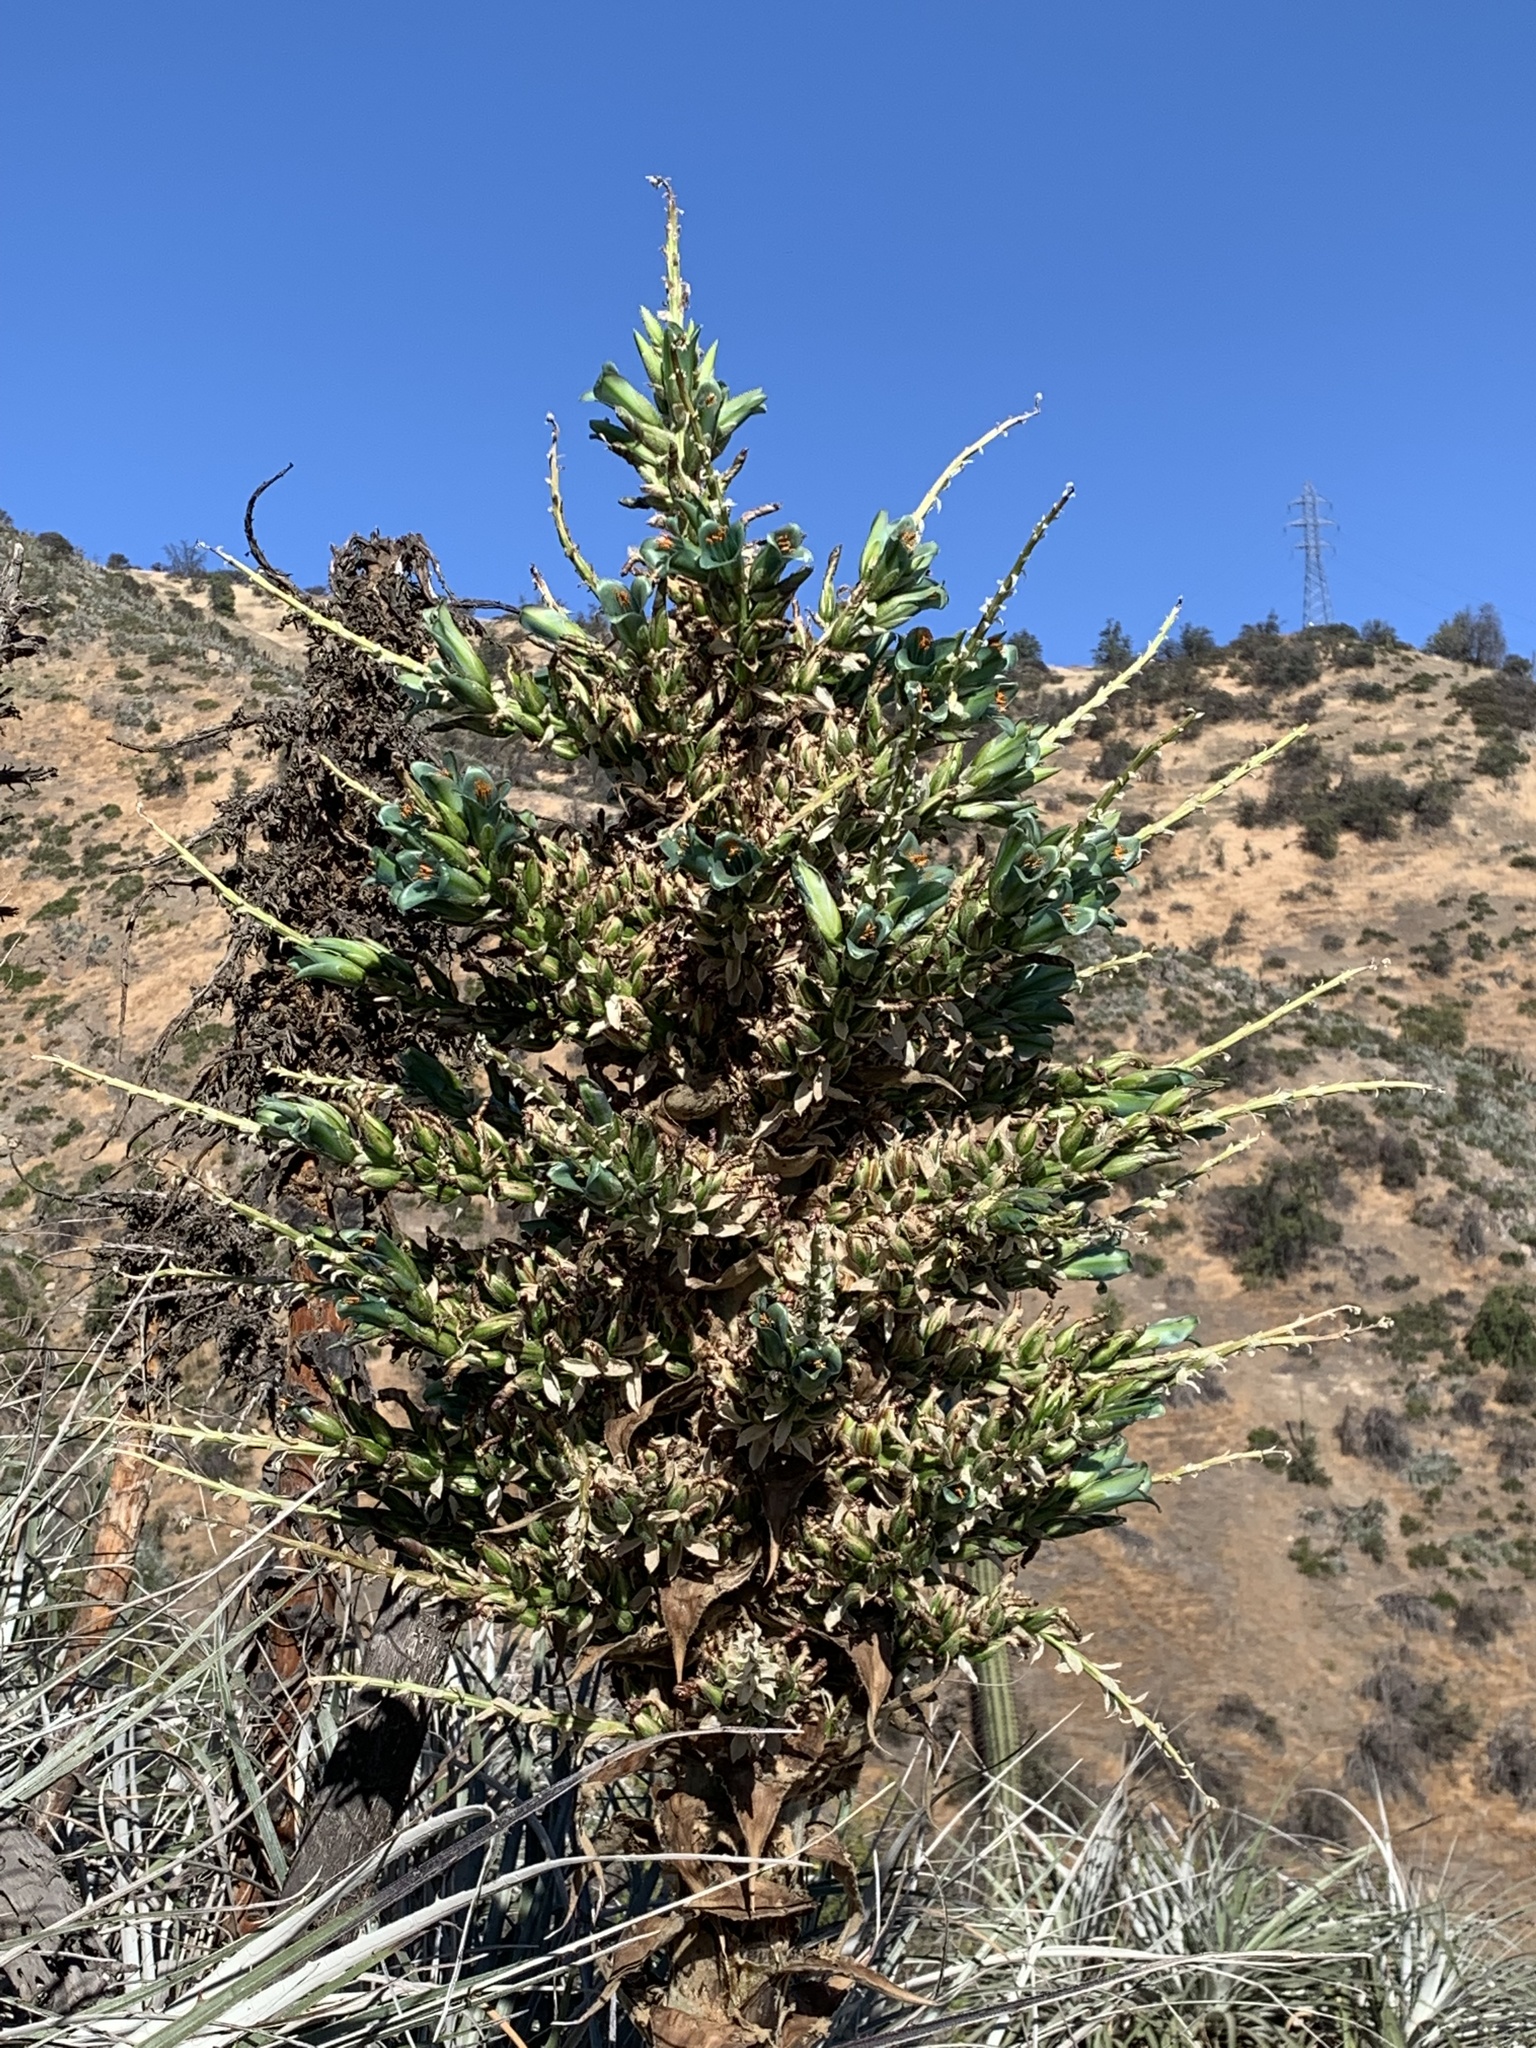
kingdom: Plantae
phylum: Tracheophyta
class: Liliopsida
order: Poales
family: Bromeliaceae
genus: Puya
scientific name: Puya alpestris
